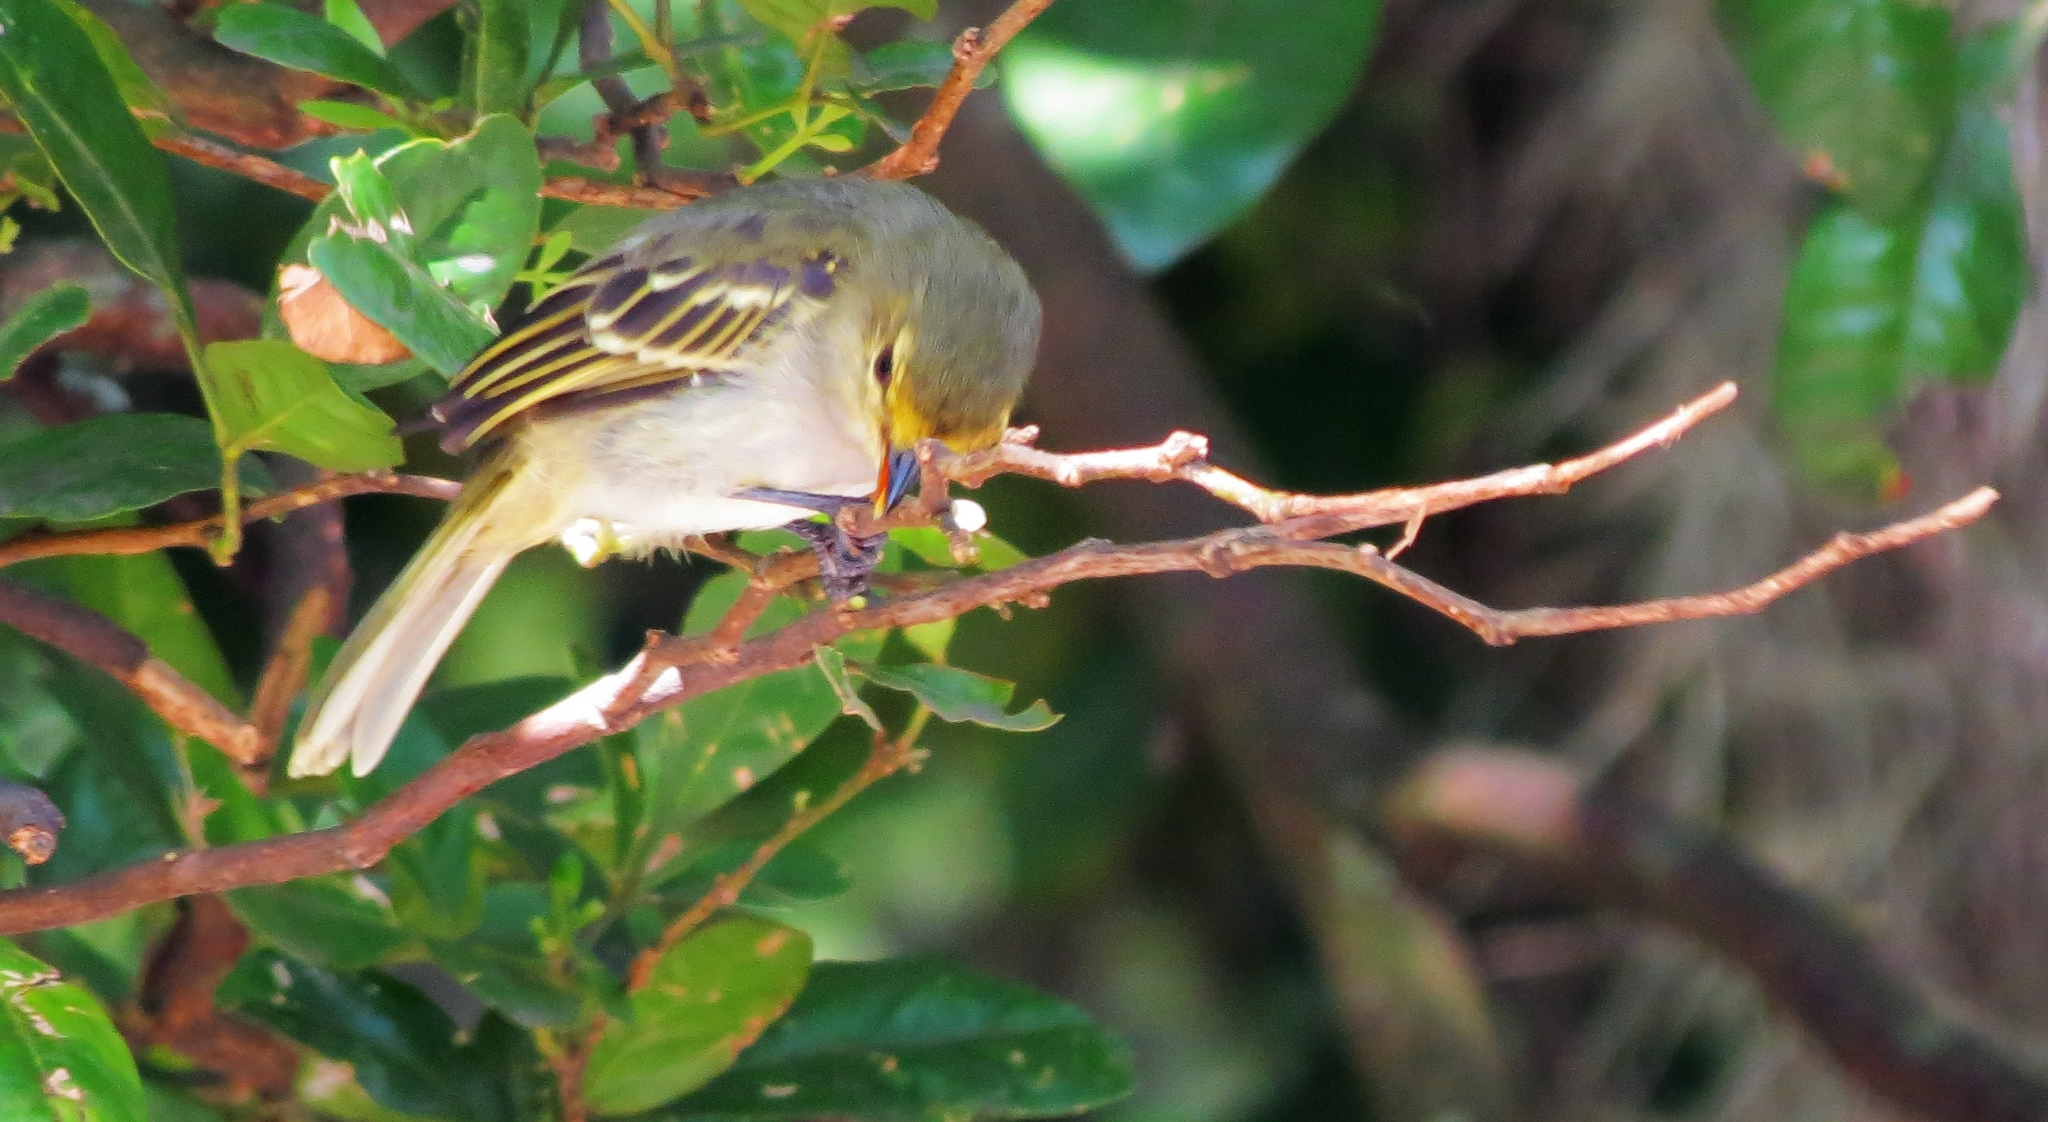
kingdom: Animalia
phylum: Chordata
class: Aves
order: Passeriformes
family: Tyrannidae
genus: Zimmerius
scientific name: Zimmerius chrysops
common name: Golden-faced tyrannulet
